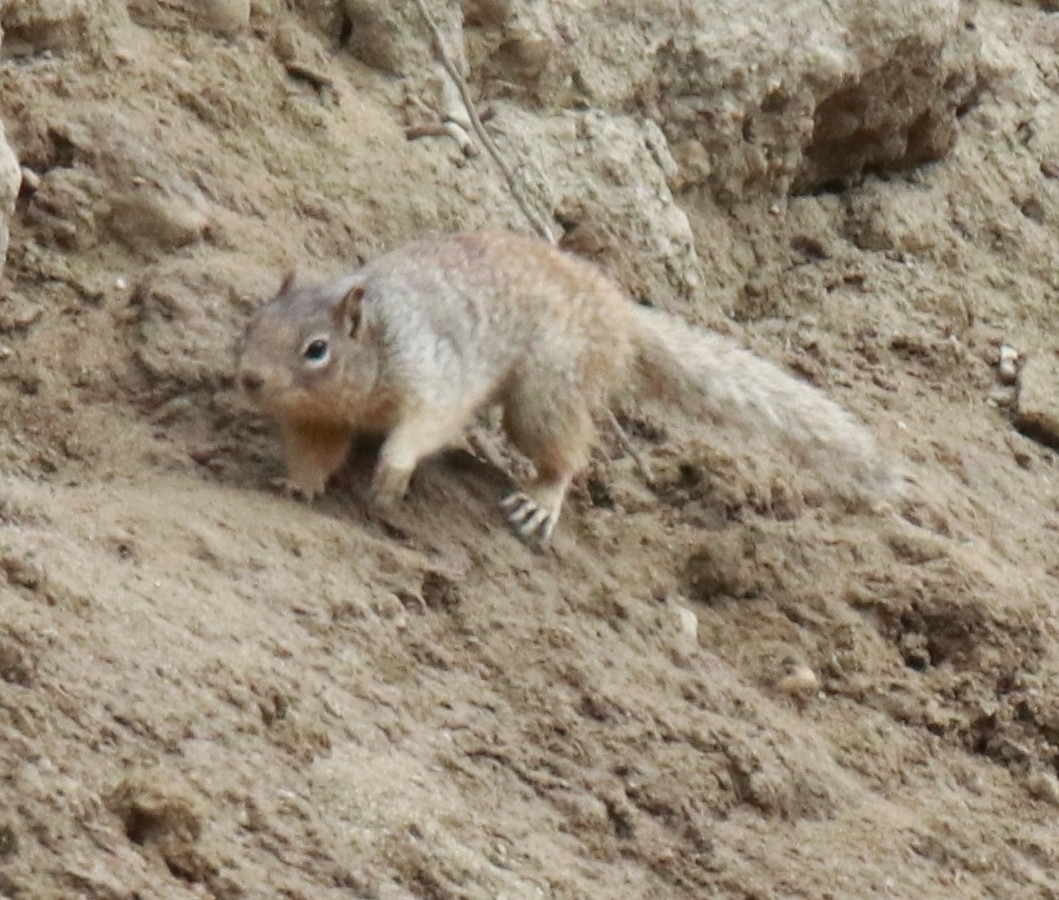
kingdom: Animalia
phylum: Chordata
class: Mammalia
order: Rodentia
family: Sciuridae
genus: Otospermophilus
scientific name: Otospermophilus variegatus
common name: Rock squirrel
